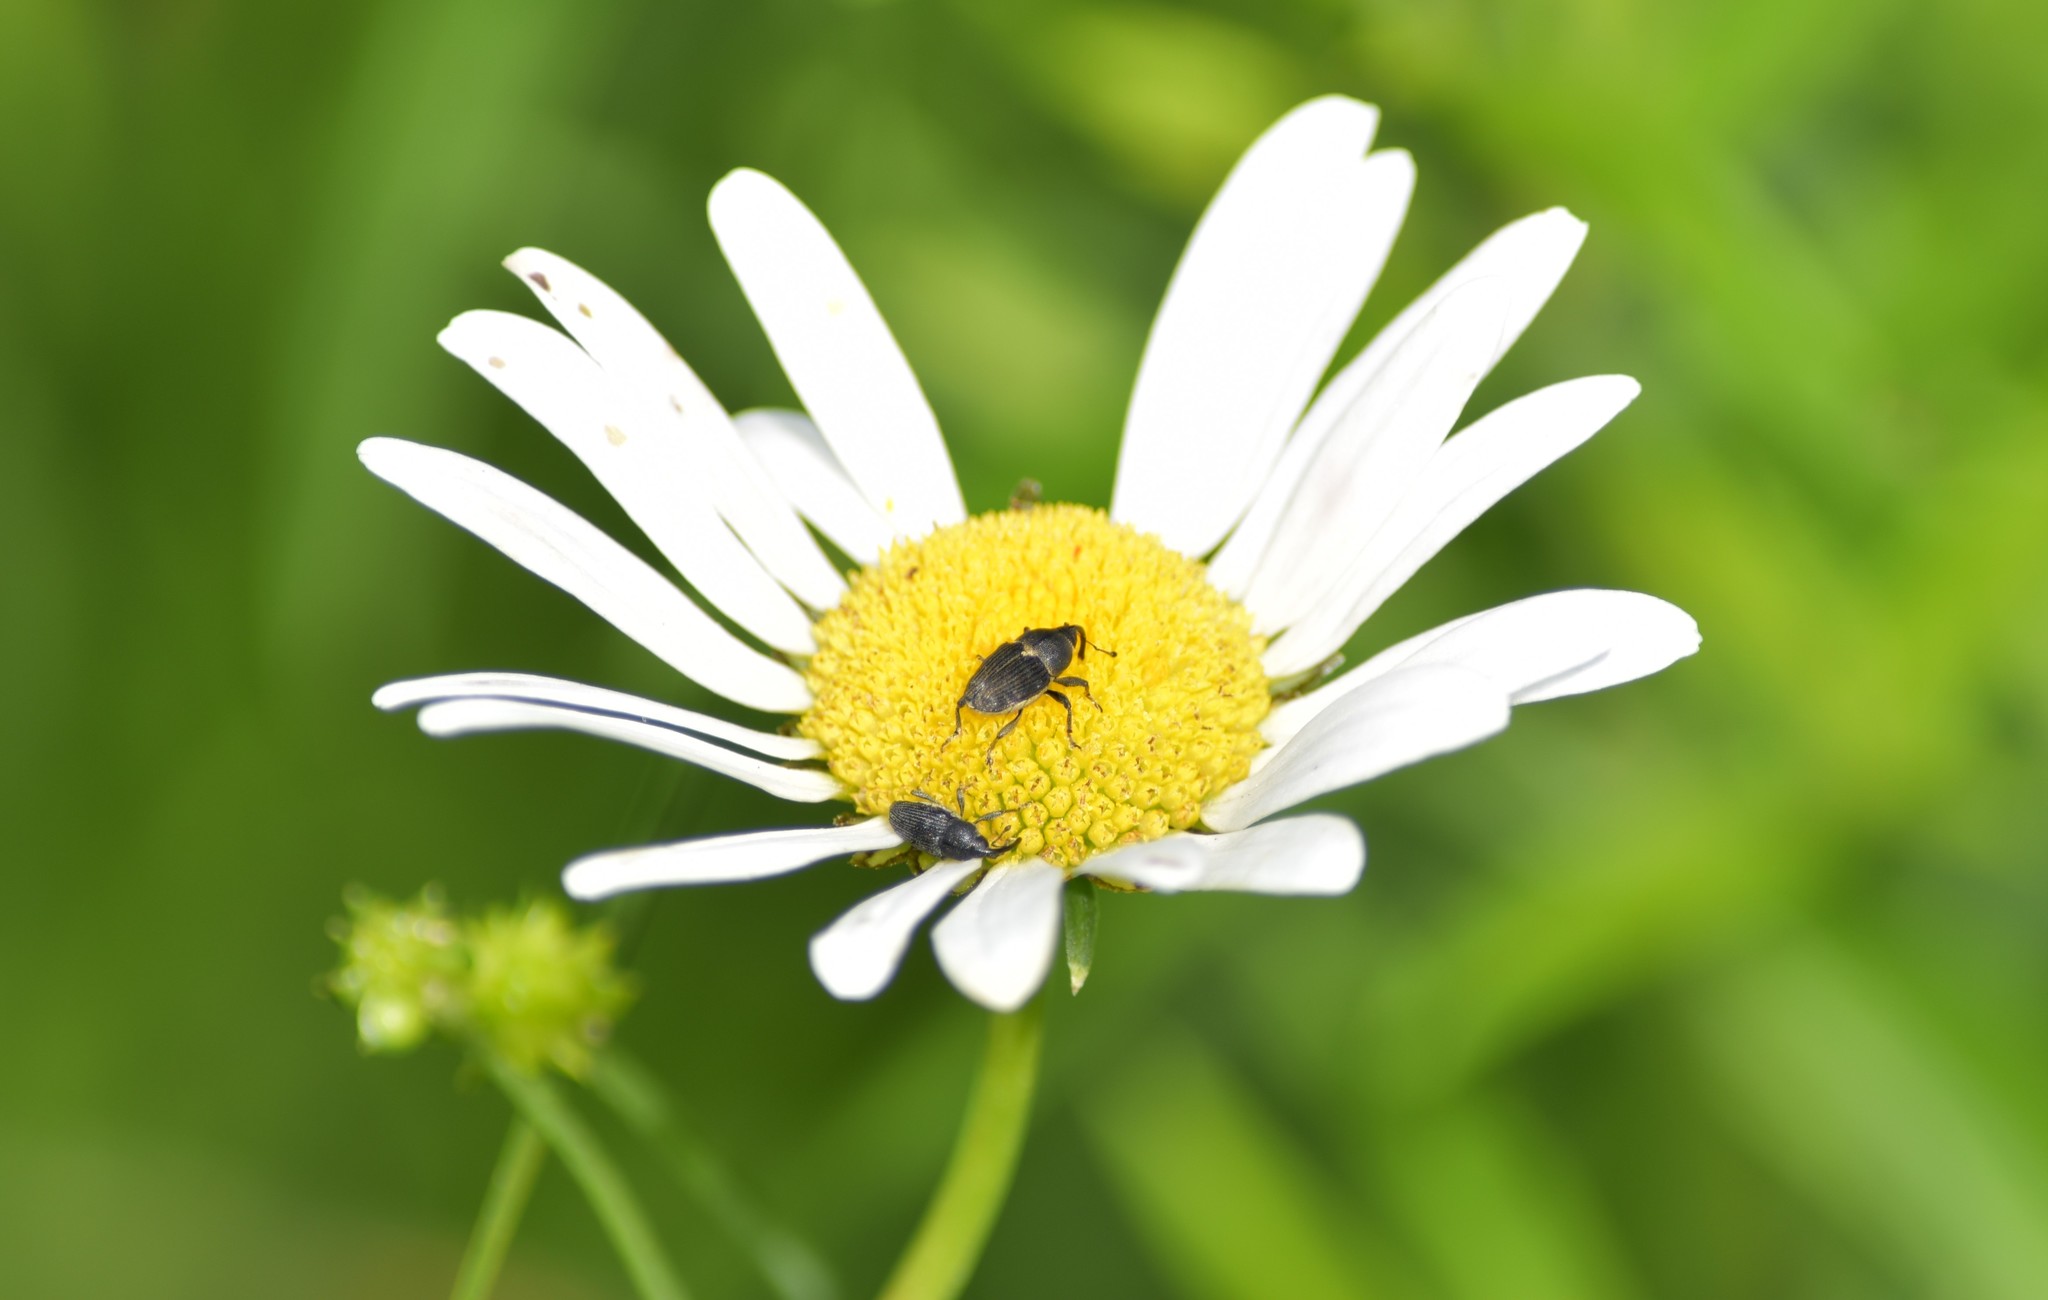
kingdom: Animalia
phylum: Arthropoda
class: Insecta
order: Coleoptera
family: Curculionidae
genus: Odontocorynus
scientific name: Odontocorynus salebrosus
